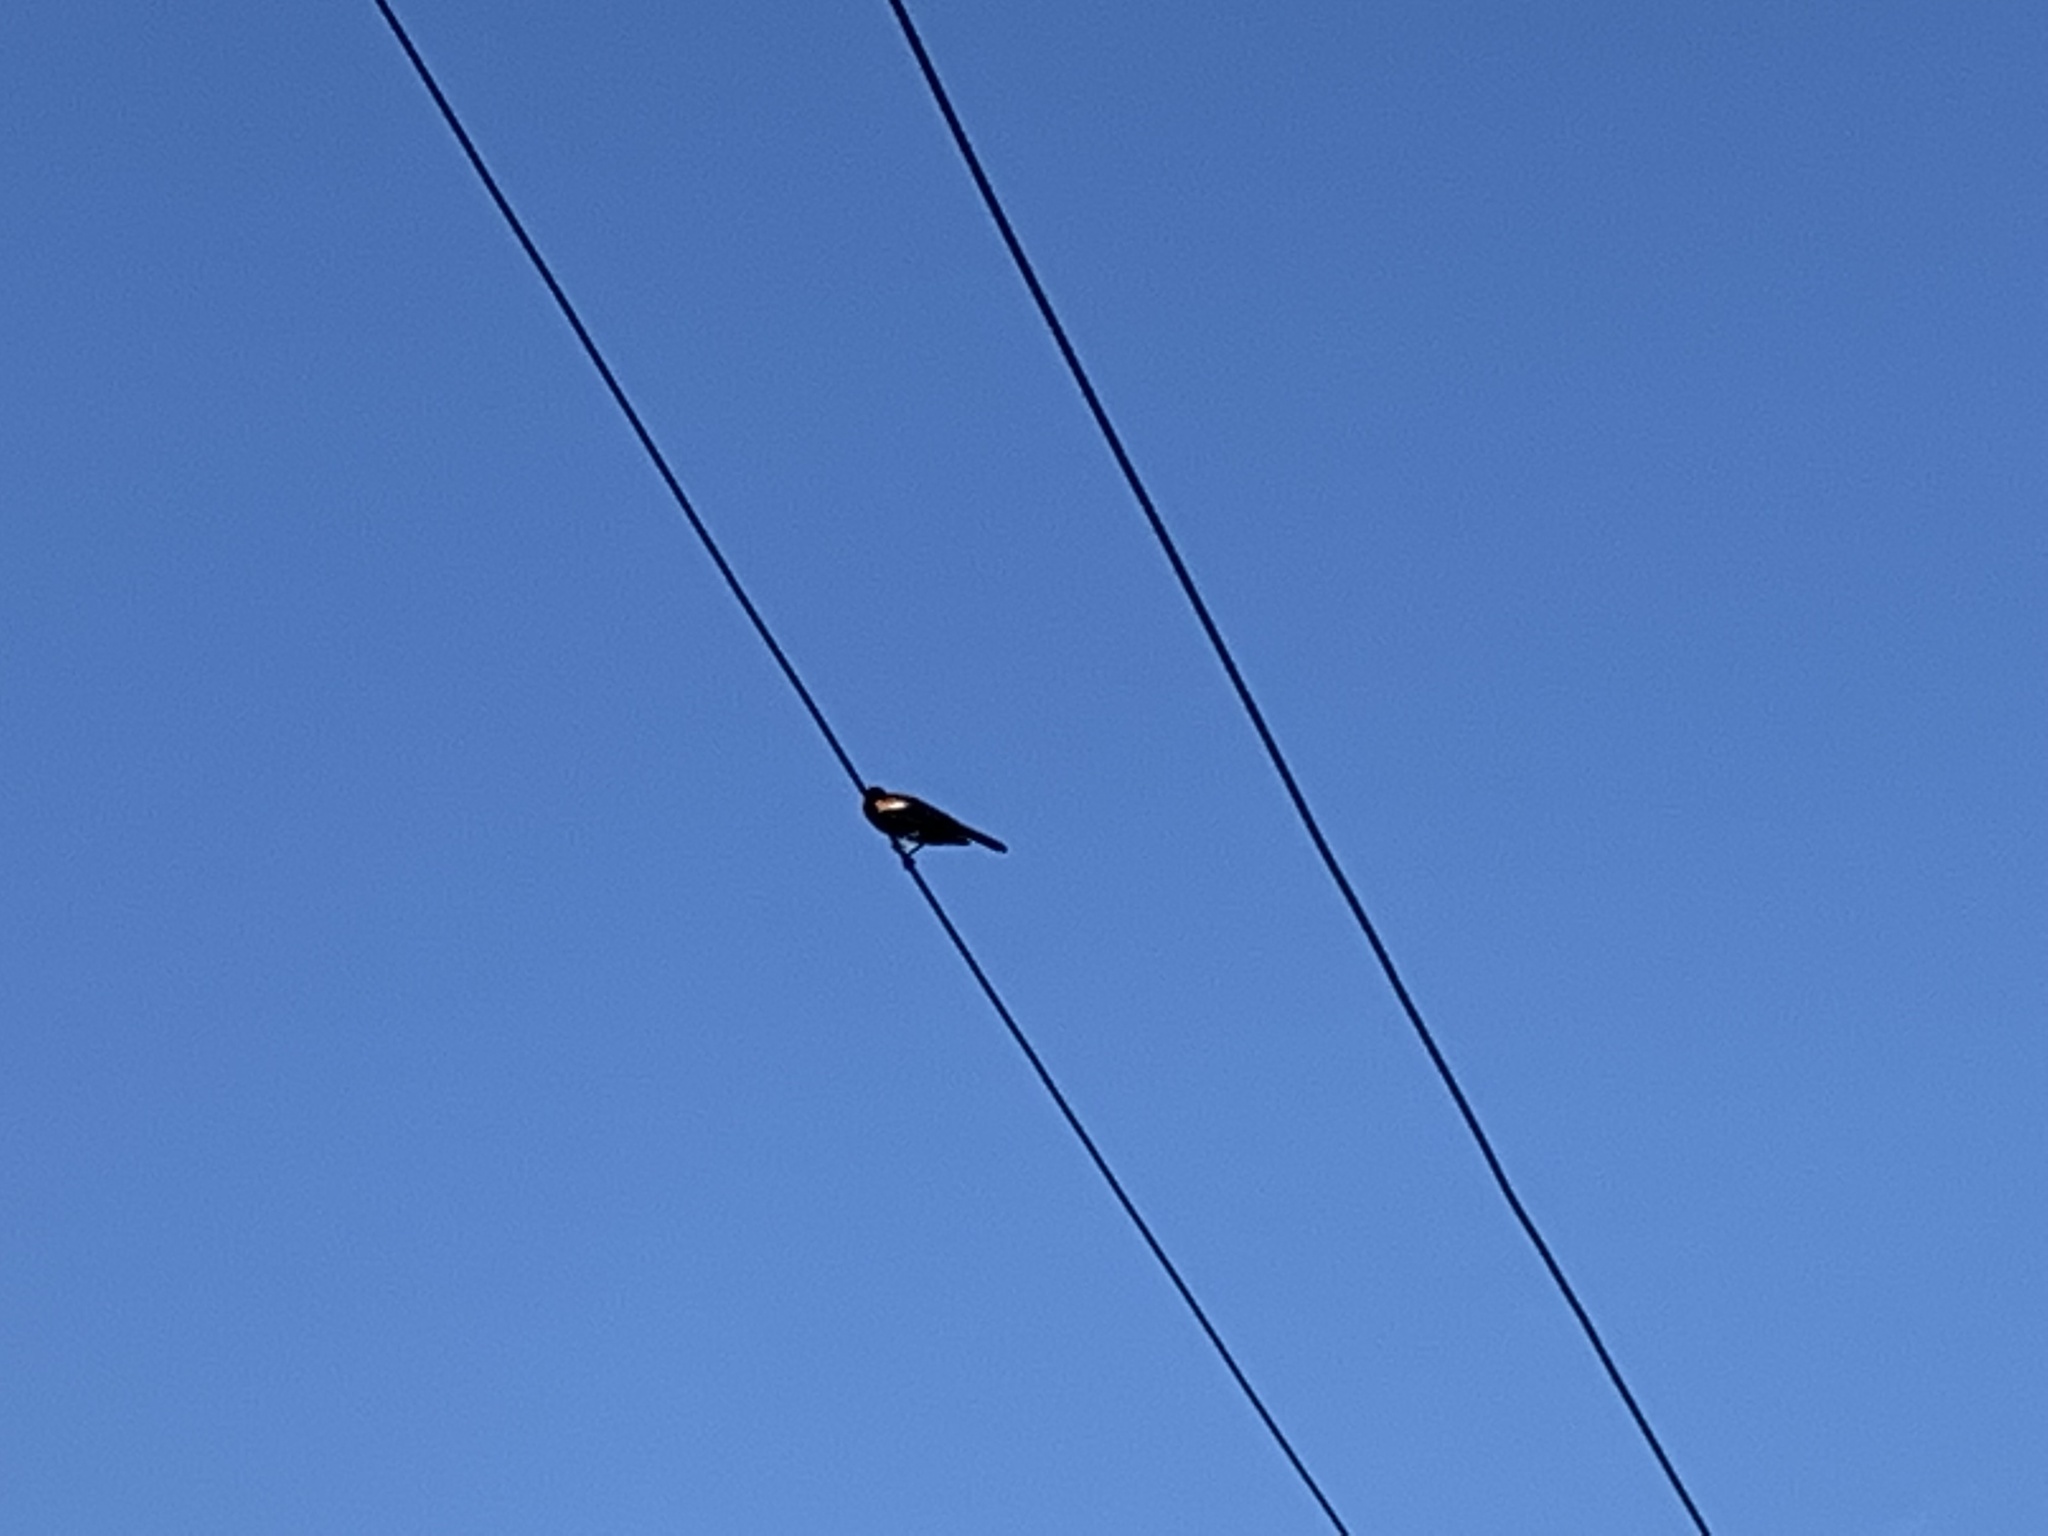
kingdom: Animalia
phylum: Chordata
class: Aves
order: Passeriformes
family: Icteridae
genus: Agelaius
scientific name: Agelaius phoeniceus
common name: Red-winged blackbird
